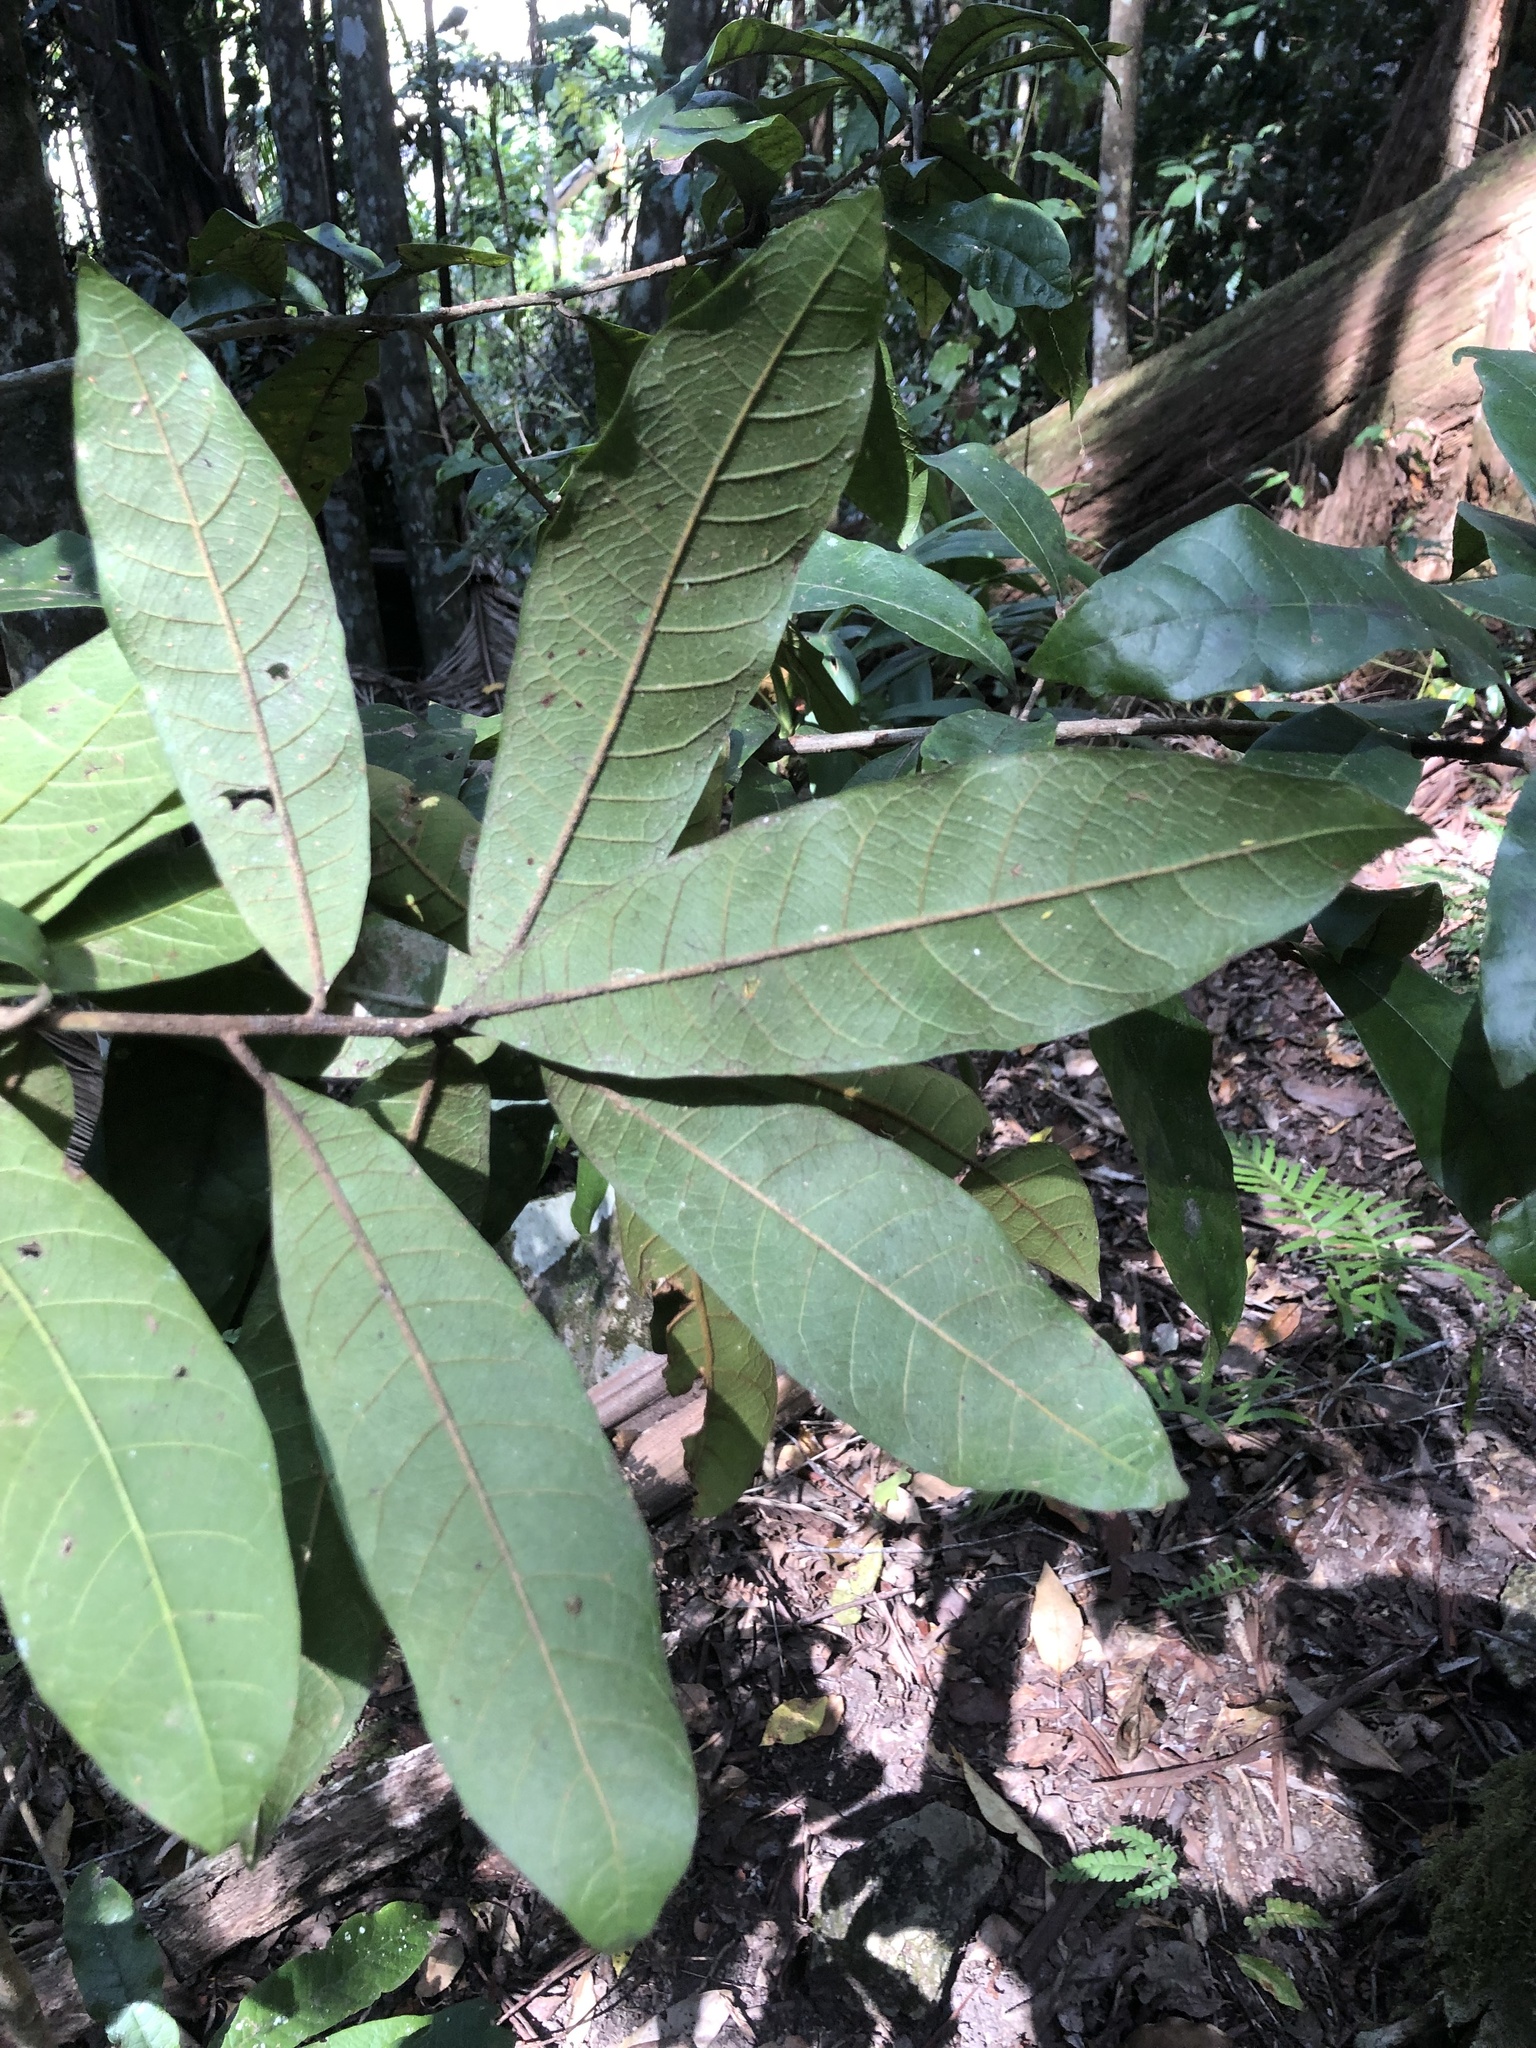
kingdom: Plantae
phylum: Tracheophyta
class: Magnoliopsida
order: Ericales
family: Sapotaceae
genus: Niemeyera
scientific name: Niemeyera whitei
